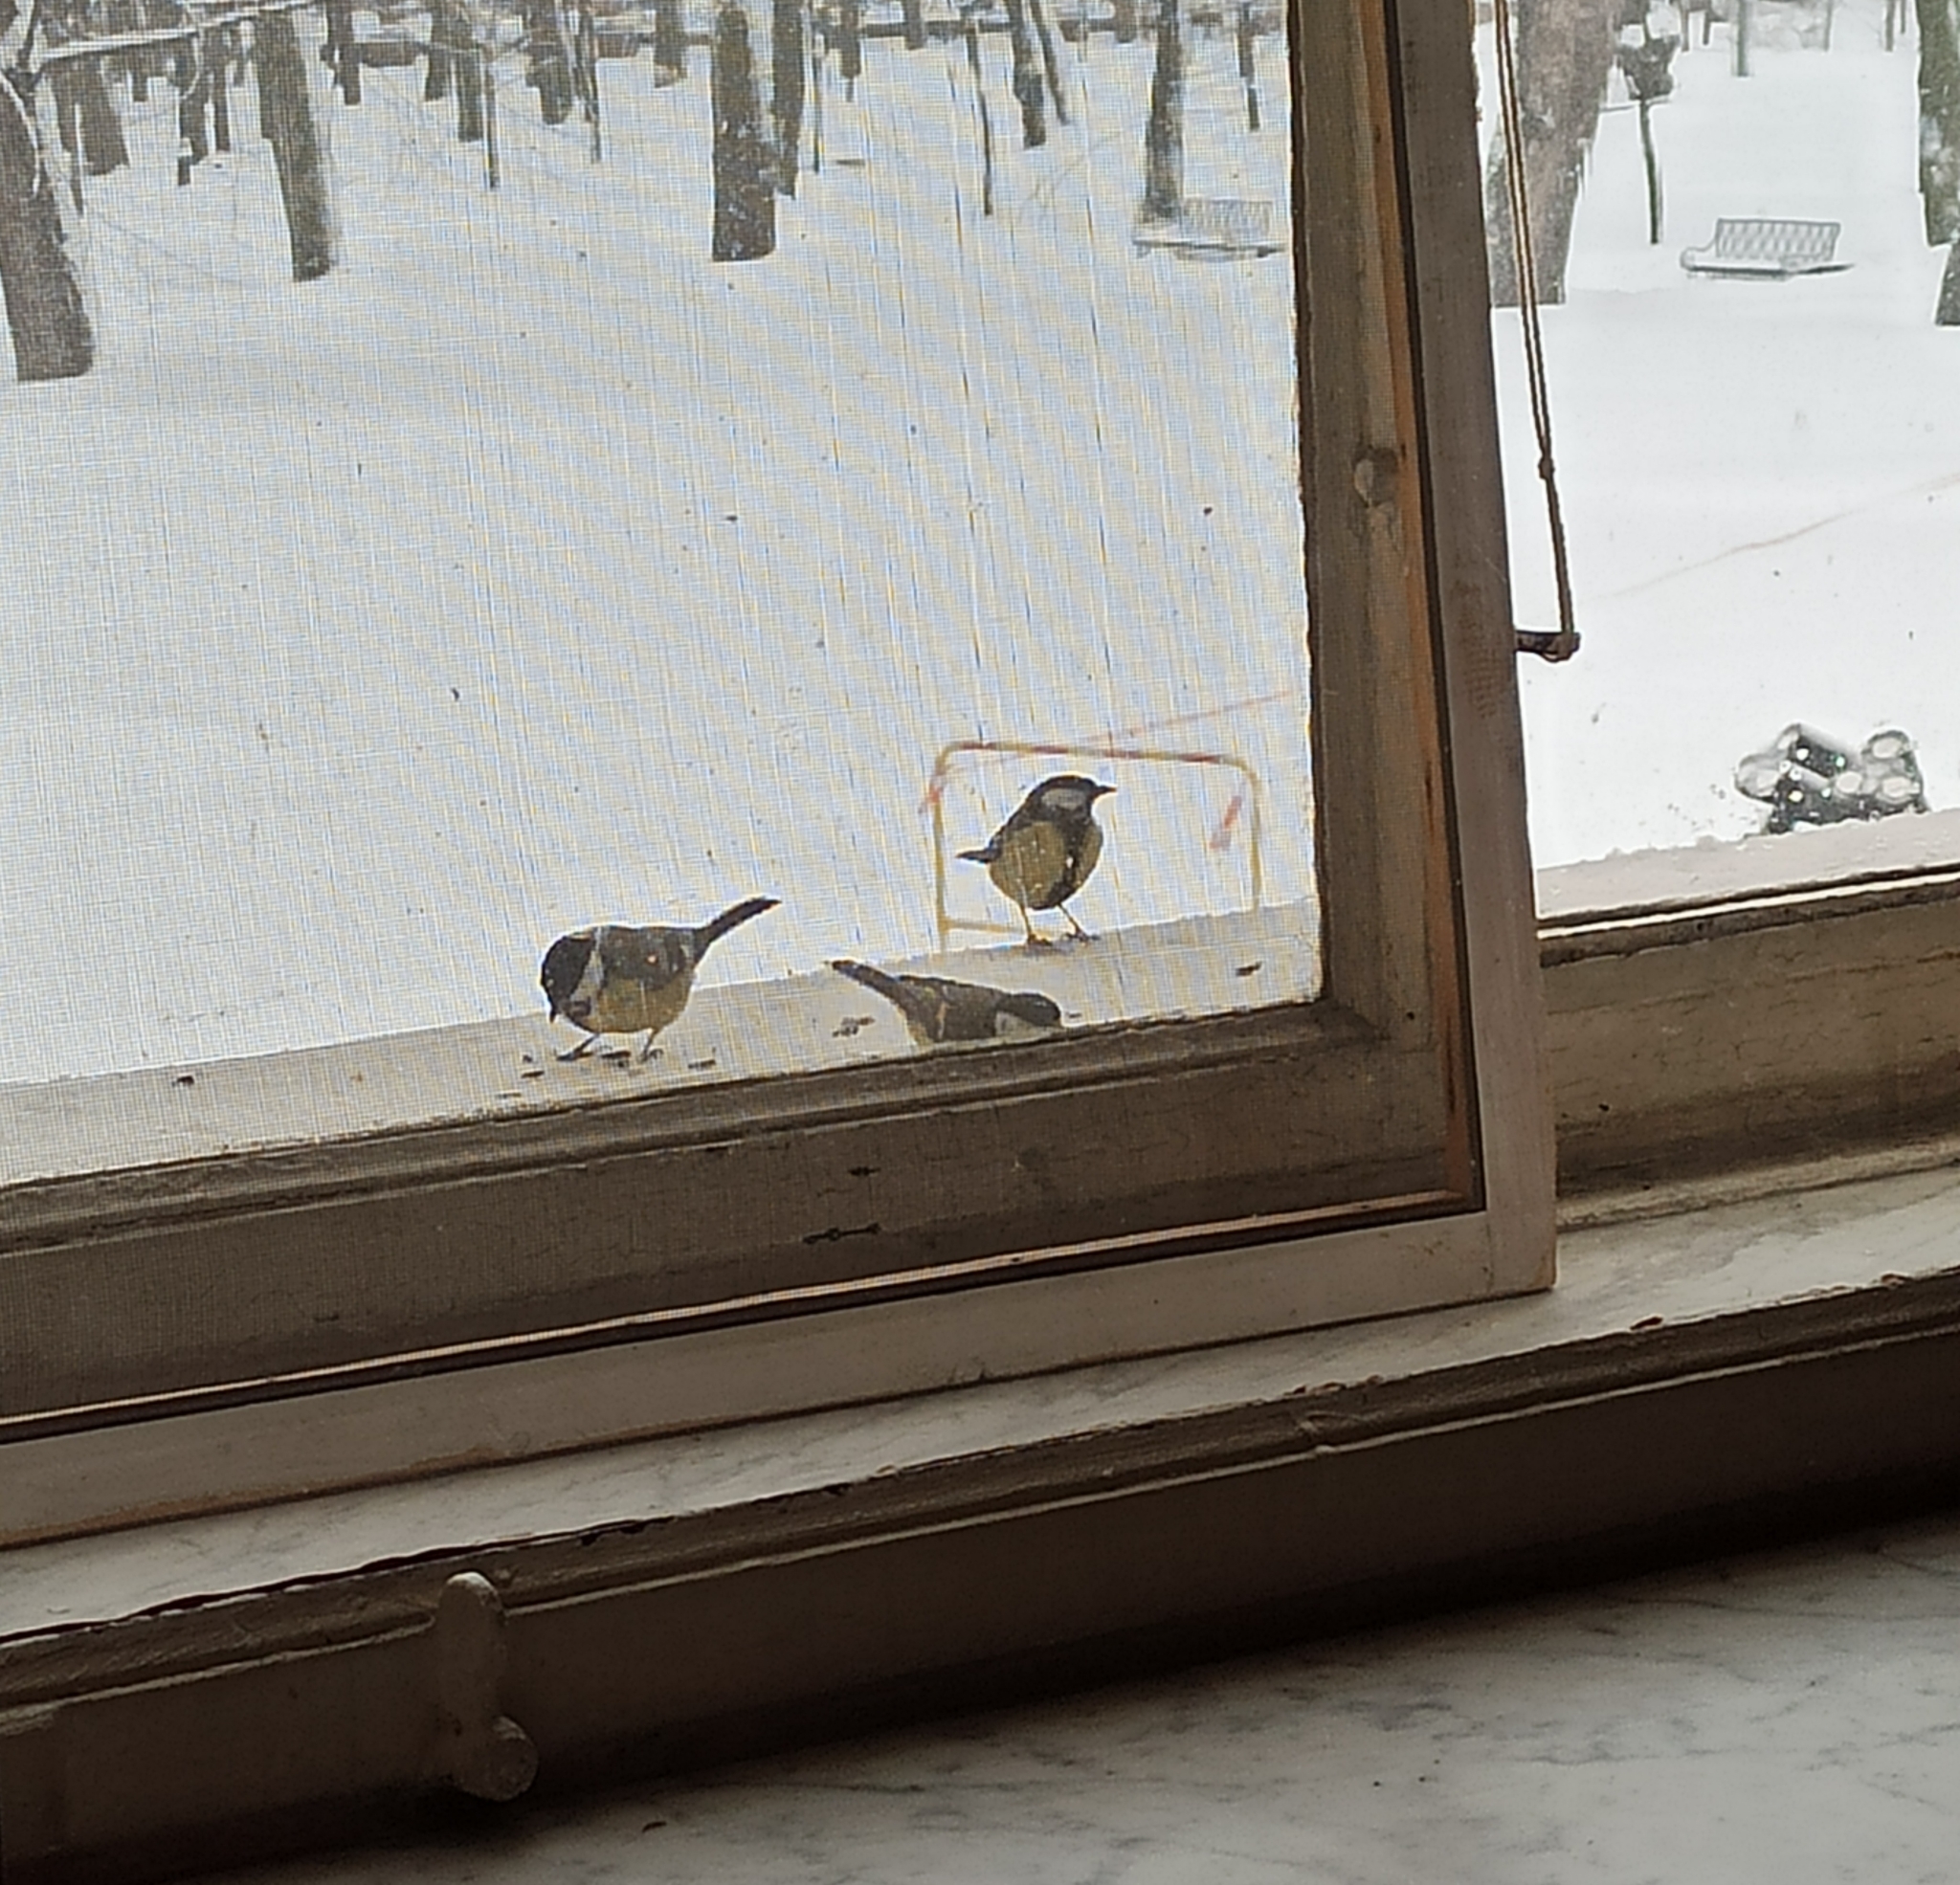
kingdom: Animalia
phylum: Chordata
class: Aves
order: Passeriformes
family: Paridae
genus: Parus
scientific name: Parus major
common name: Great tit
